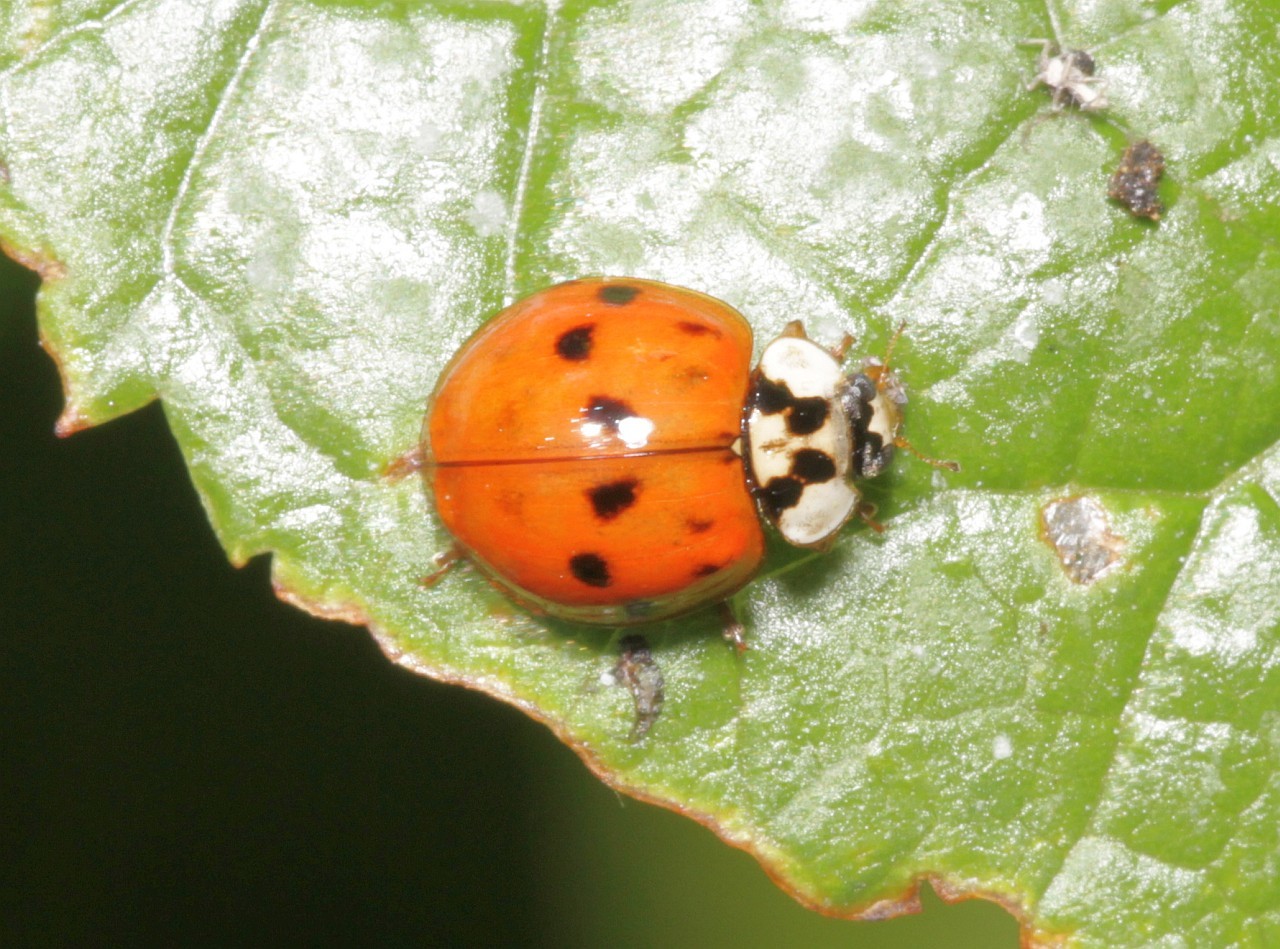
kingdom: Animalia
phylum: Arthropoda
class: Insecta
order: Coleoptera
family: Coccinellidae
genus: Harmonia
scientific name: Harmonia axyridis
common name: Harlequin ladybird
